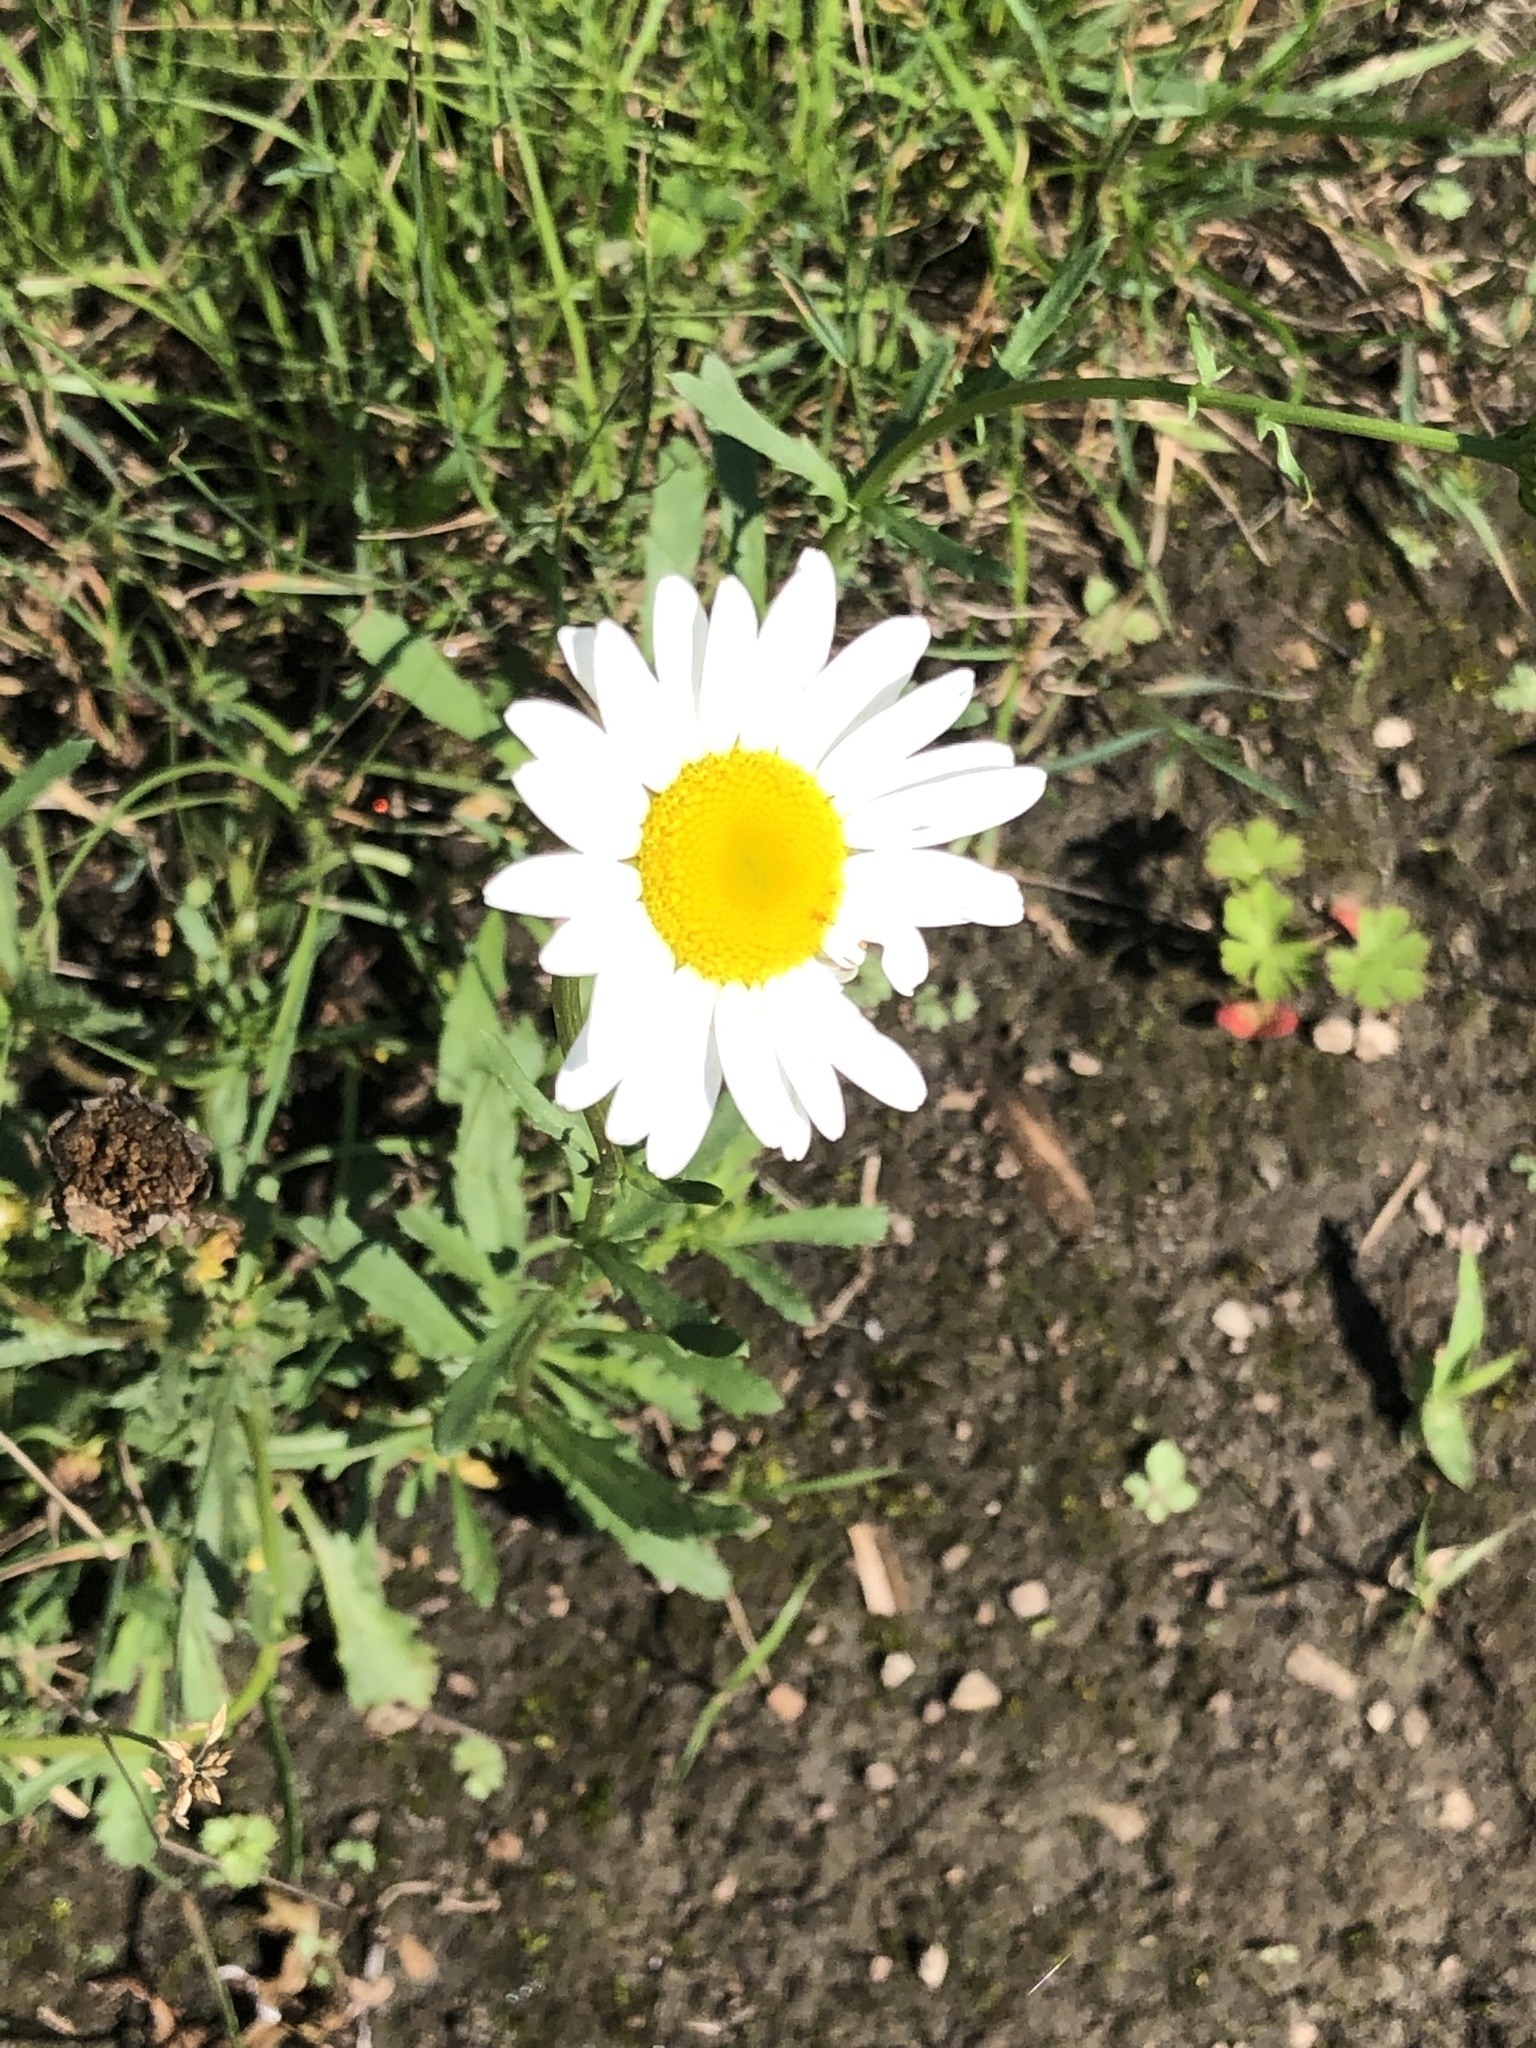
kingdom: Plantae
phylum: Tracheophyta
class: Magnoliopsida
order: Asterales
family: Asteraceae
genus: Leucanthemum
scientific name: Leucanthemum vulgare
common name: Oxeye daisy
